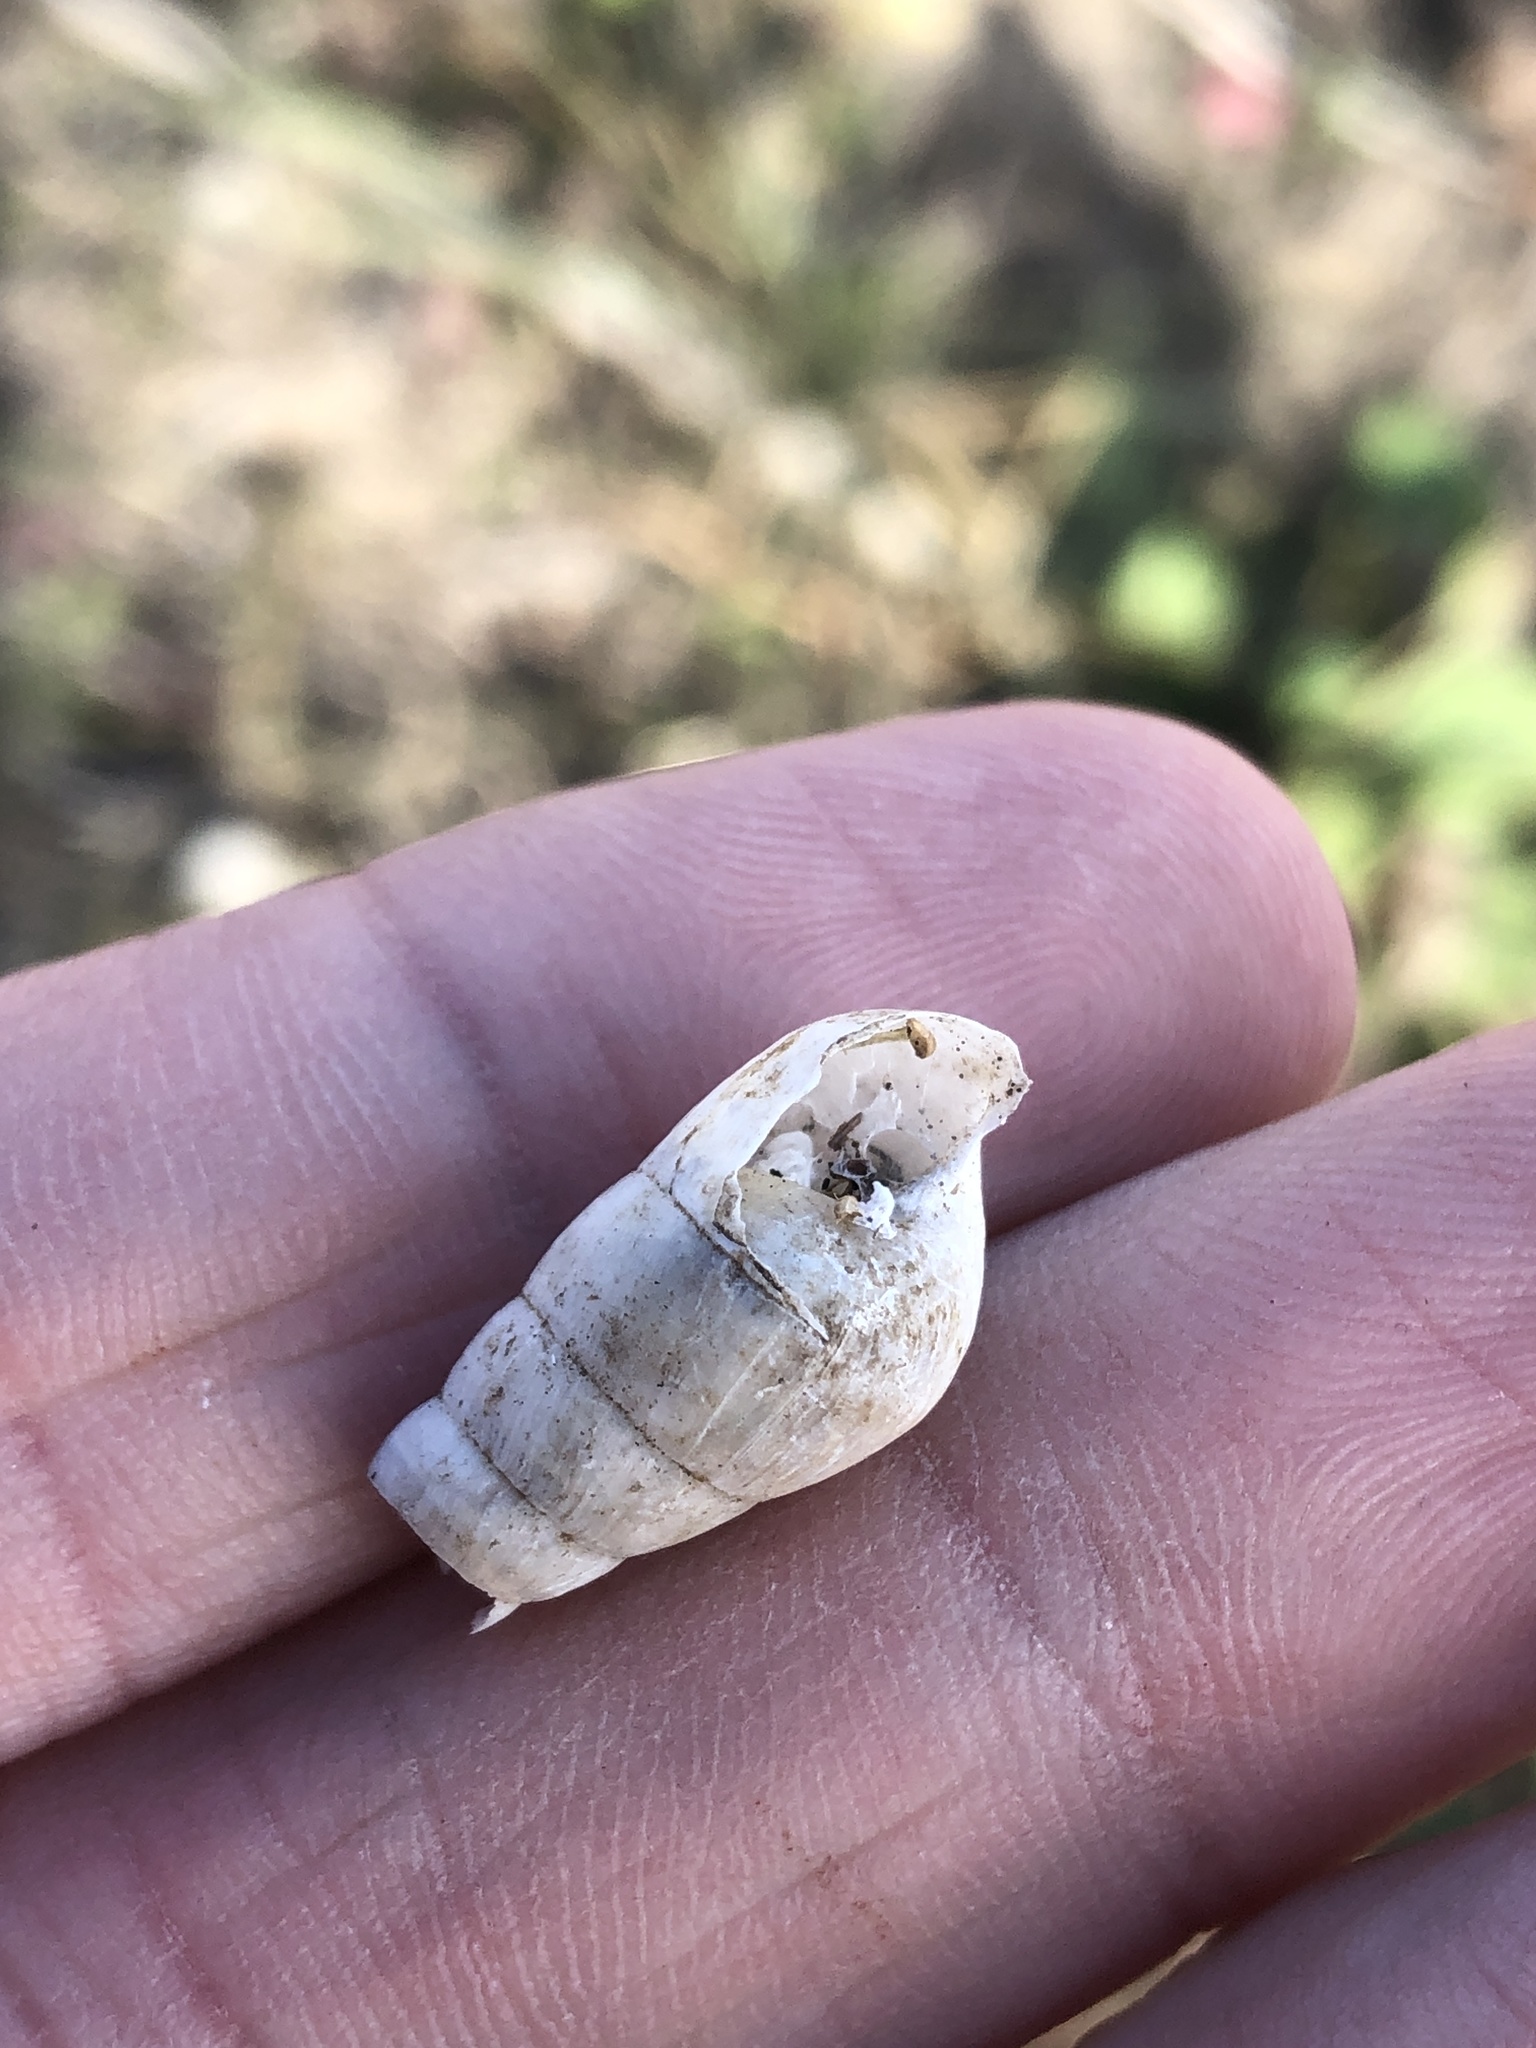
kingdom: Animalia
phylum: Mollusca
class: Gastropoda
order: Stylommatophora
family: Achatinidae
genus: Rumina
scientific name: Rumina decollata
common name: Decollate snail
